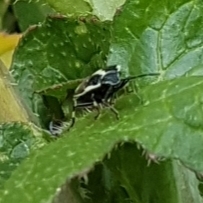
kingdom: Animalia
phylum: Arthropoda
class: Insecta
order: Hemiptera
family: Pentatomidae
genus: Eurydema
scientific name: Eurydema oleracea
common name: Cabbage bug
